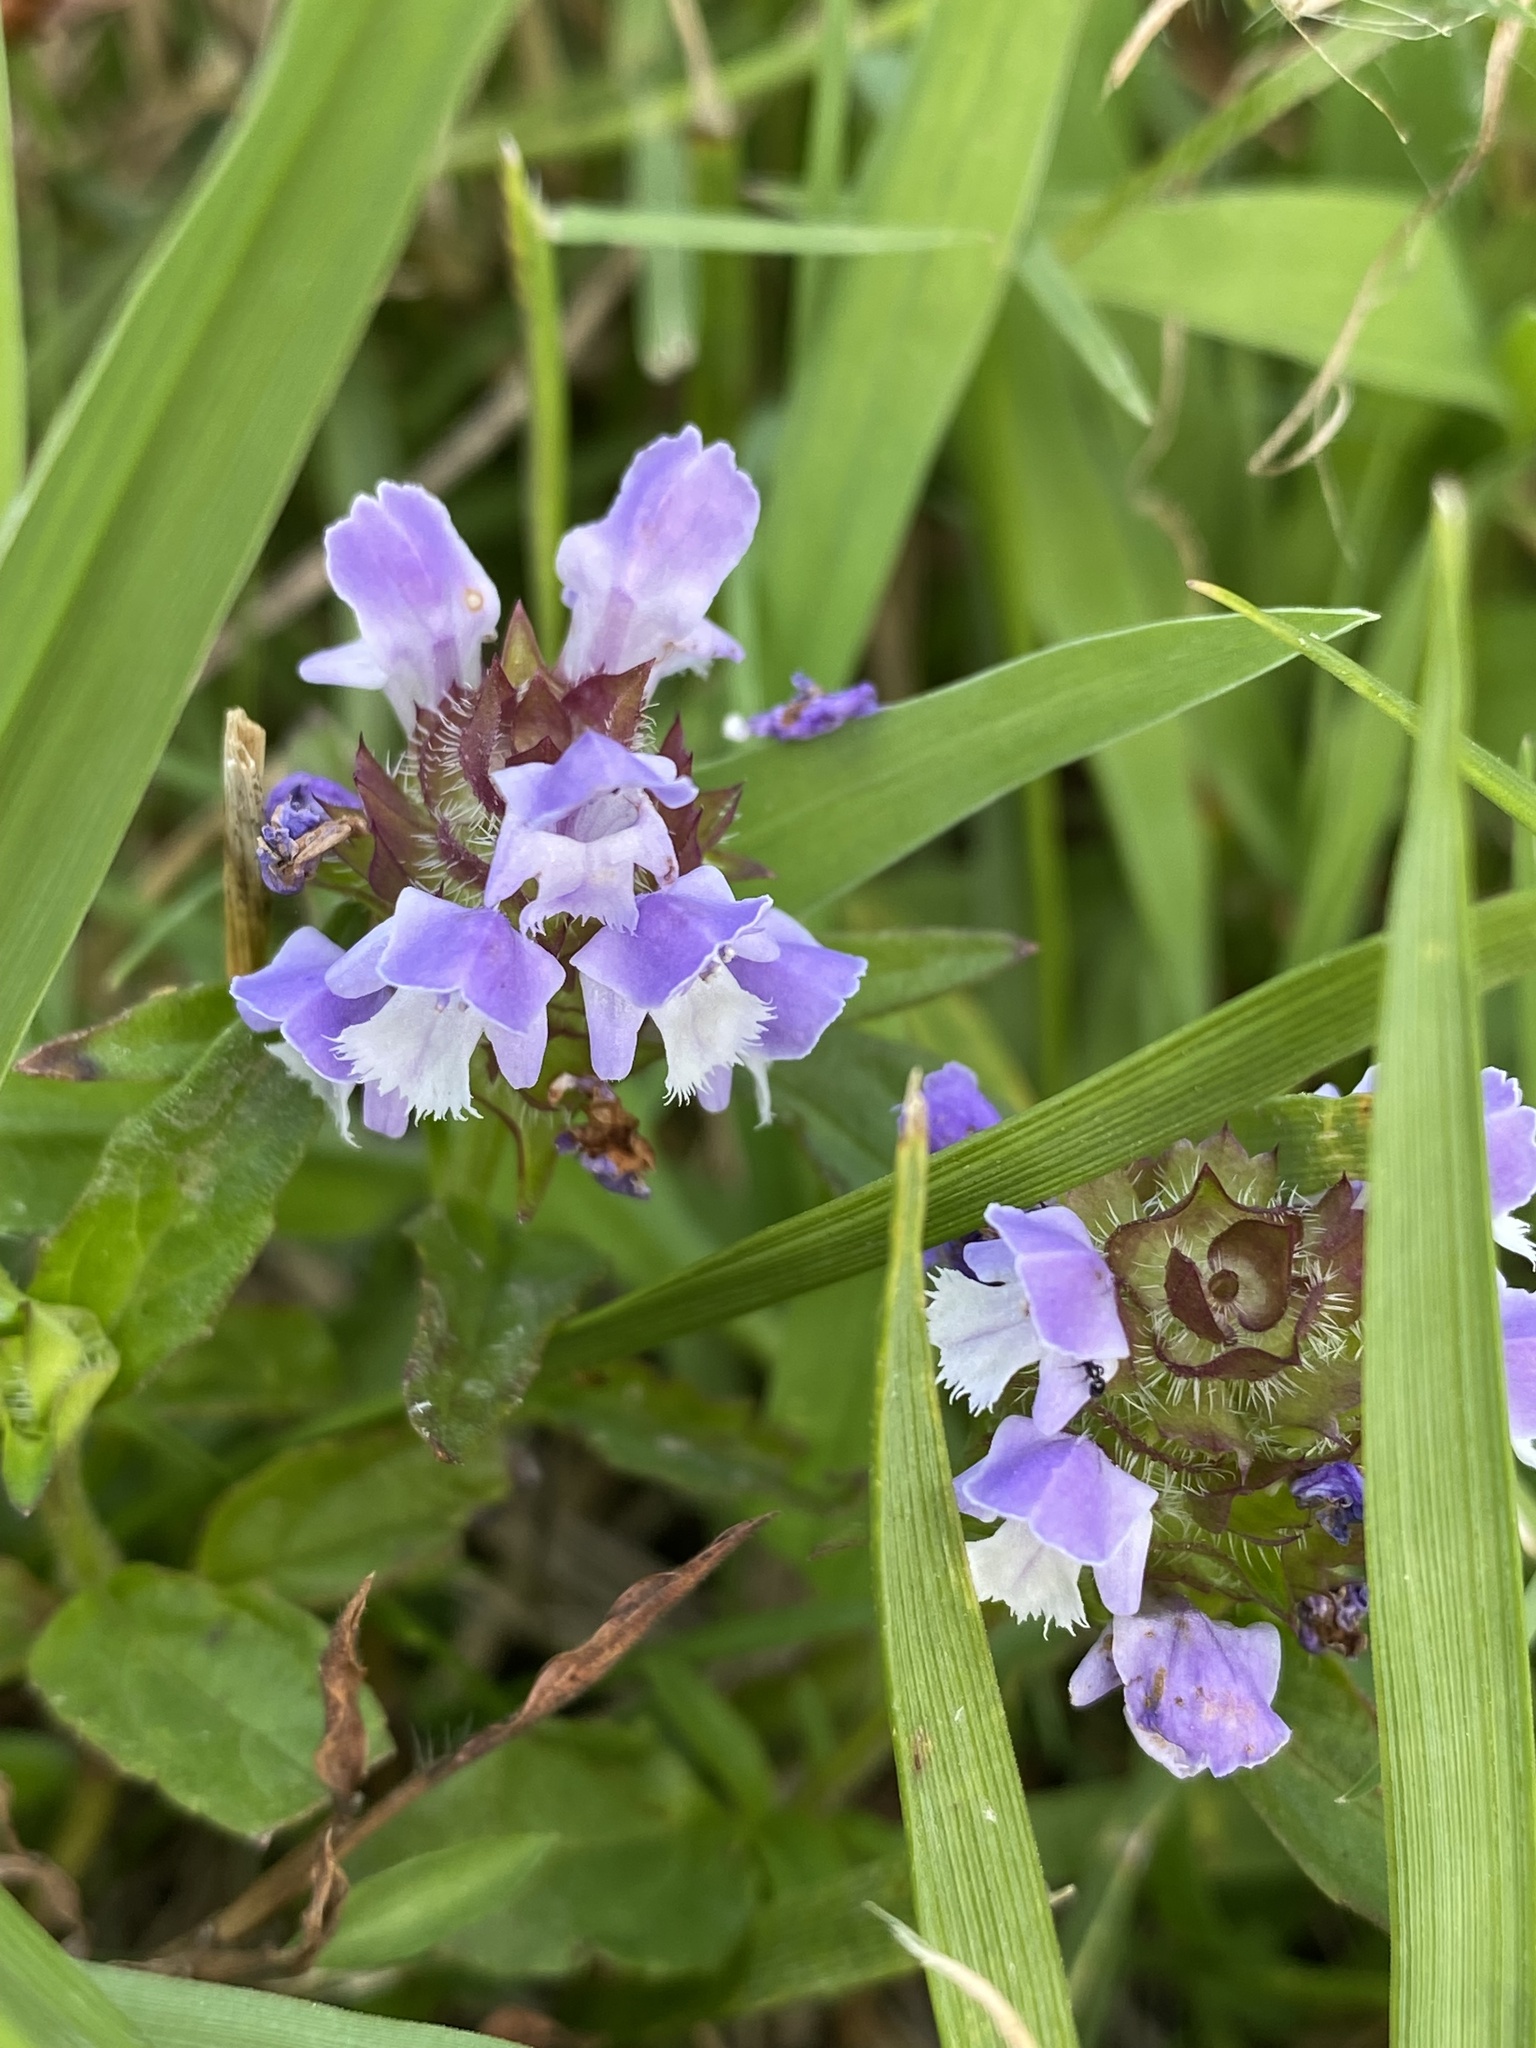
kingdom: Plantae
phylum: Tracheophyta
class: Magnoliopsida
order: Lamiales
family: Lamiaceae
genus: Prunella
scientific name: Prunella vulgaris
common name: Heal-all
